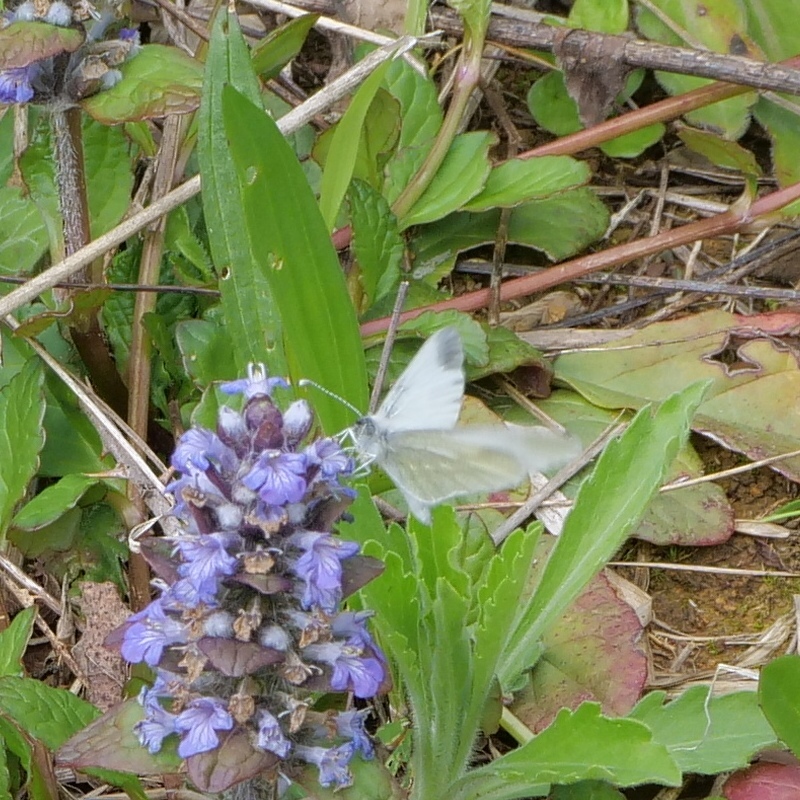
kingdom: Animalia
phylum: Arthropoda
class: Insecta
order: Lepidoptera
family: Pieridae
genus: Leptidea
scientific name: Leptidea
